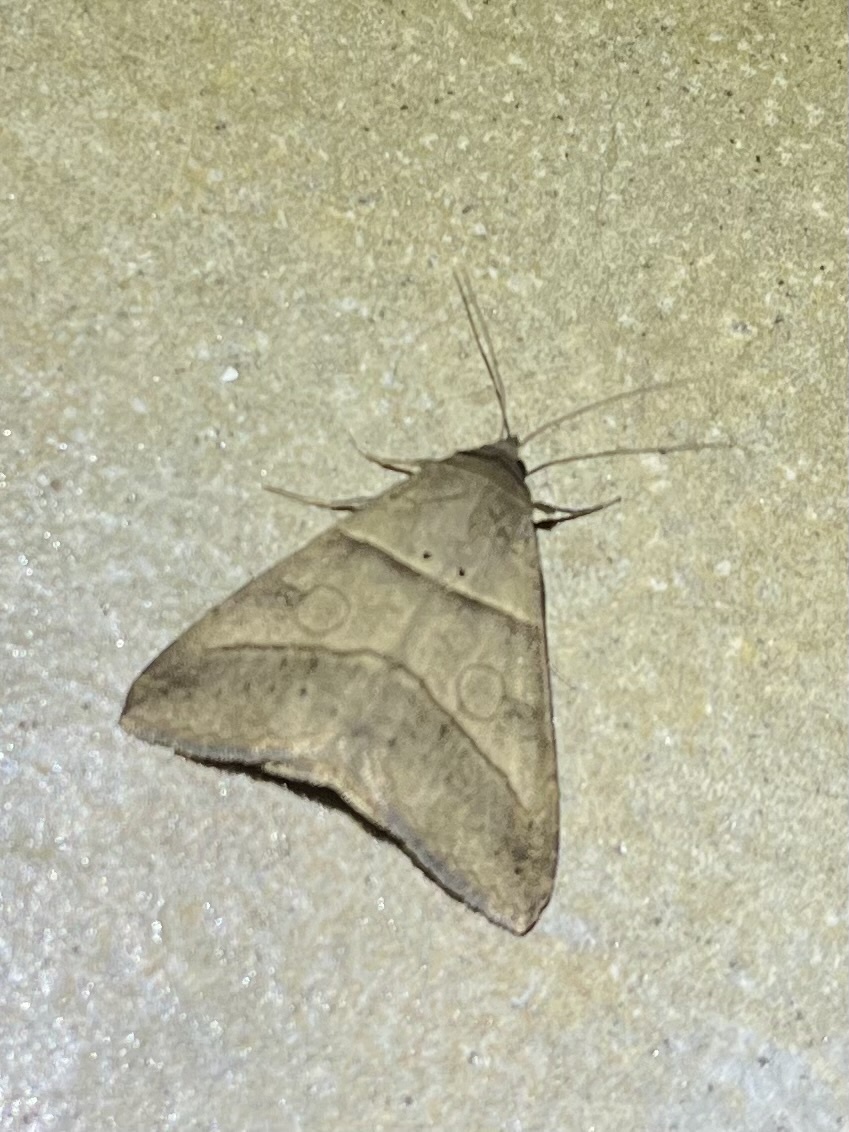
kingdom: Animalia
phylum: Arthropoda
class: Insecta
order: Lepidoptera
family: Erebidae
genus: Mocis
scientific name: Mocis conveniens
